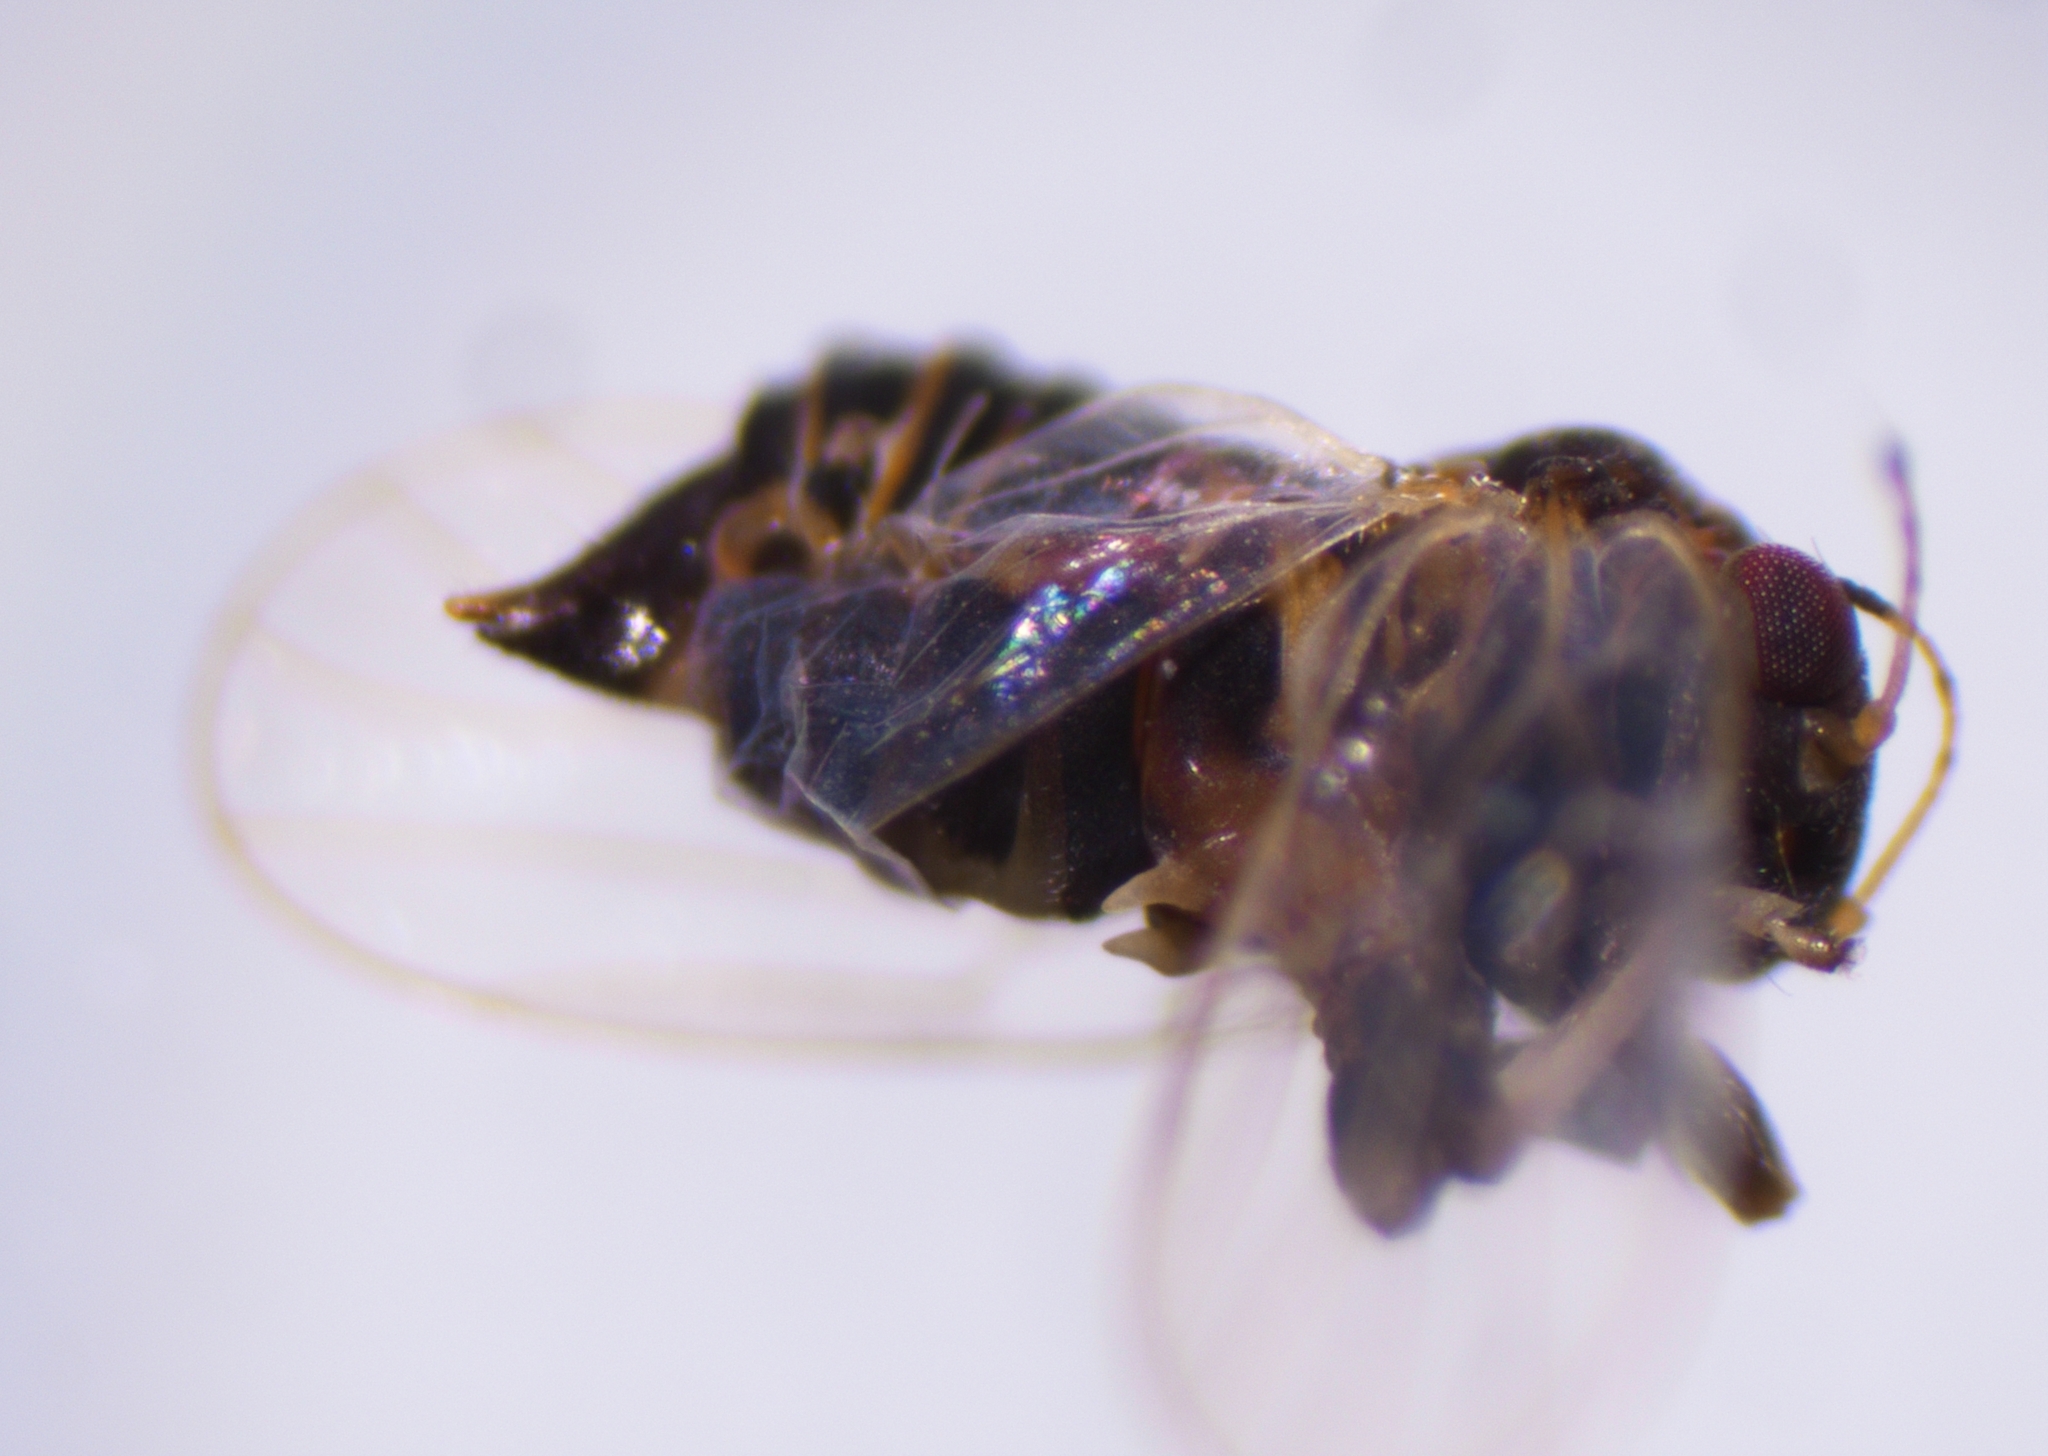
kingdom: Animalia
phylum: Arthropoda
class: Insecta
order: Hemiptera
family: Liviidae
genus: Syntomoza
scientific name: Syntomoza tahuata
